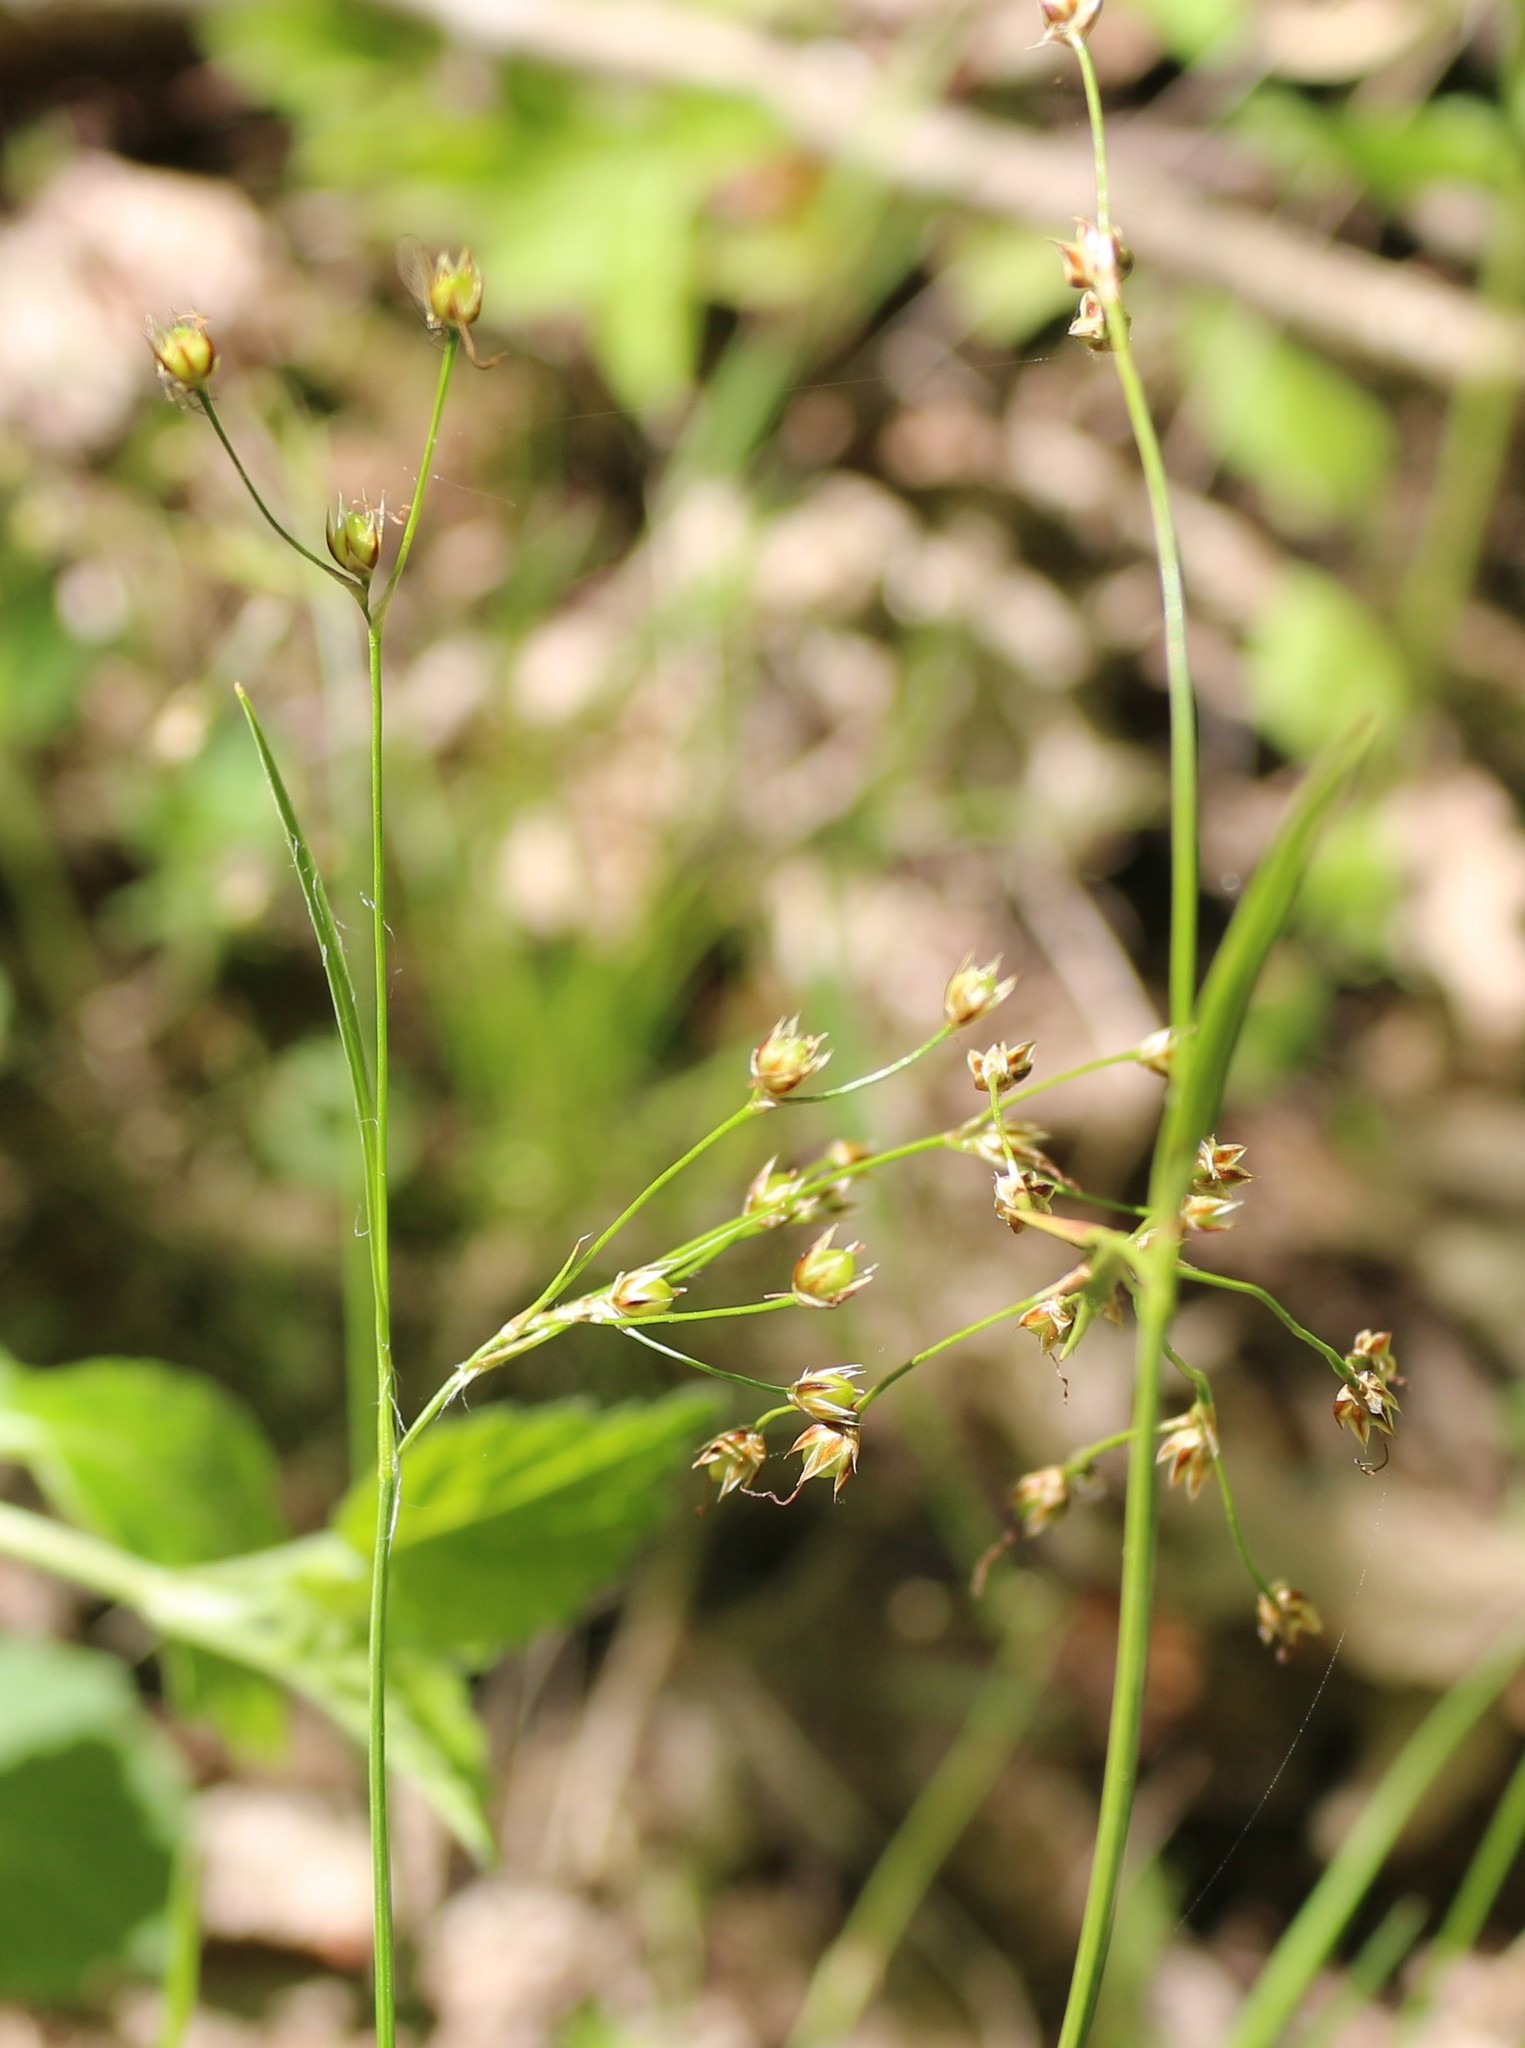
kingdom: Plantae
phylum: Tracheophyta
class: Liliopsida
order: Poales
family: Juncaceae
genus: Luzula
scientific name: Luzula forsteri
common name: Southern wood-rush
